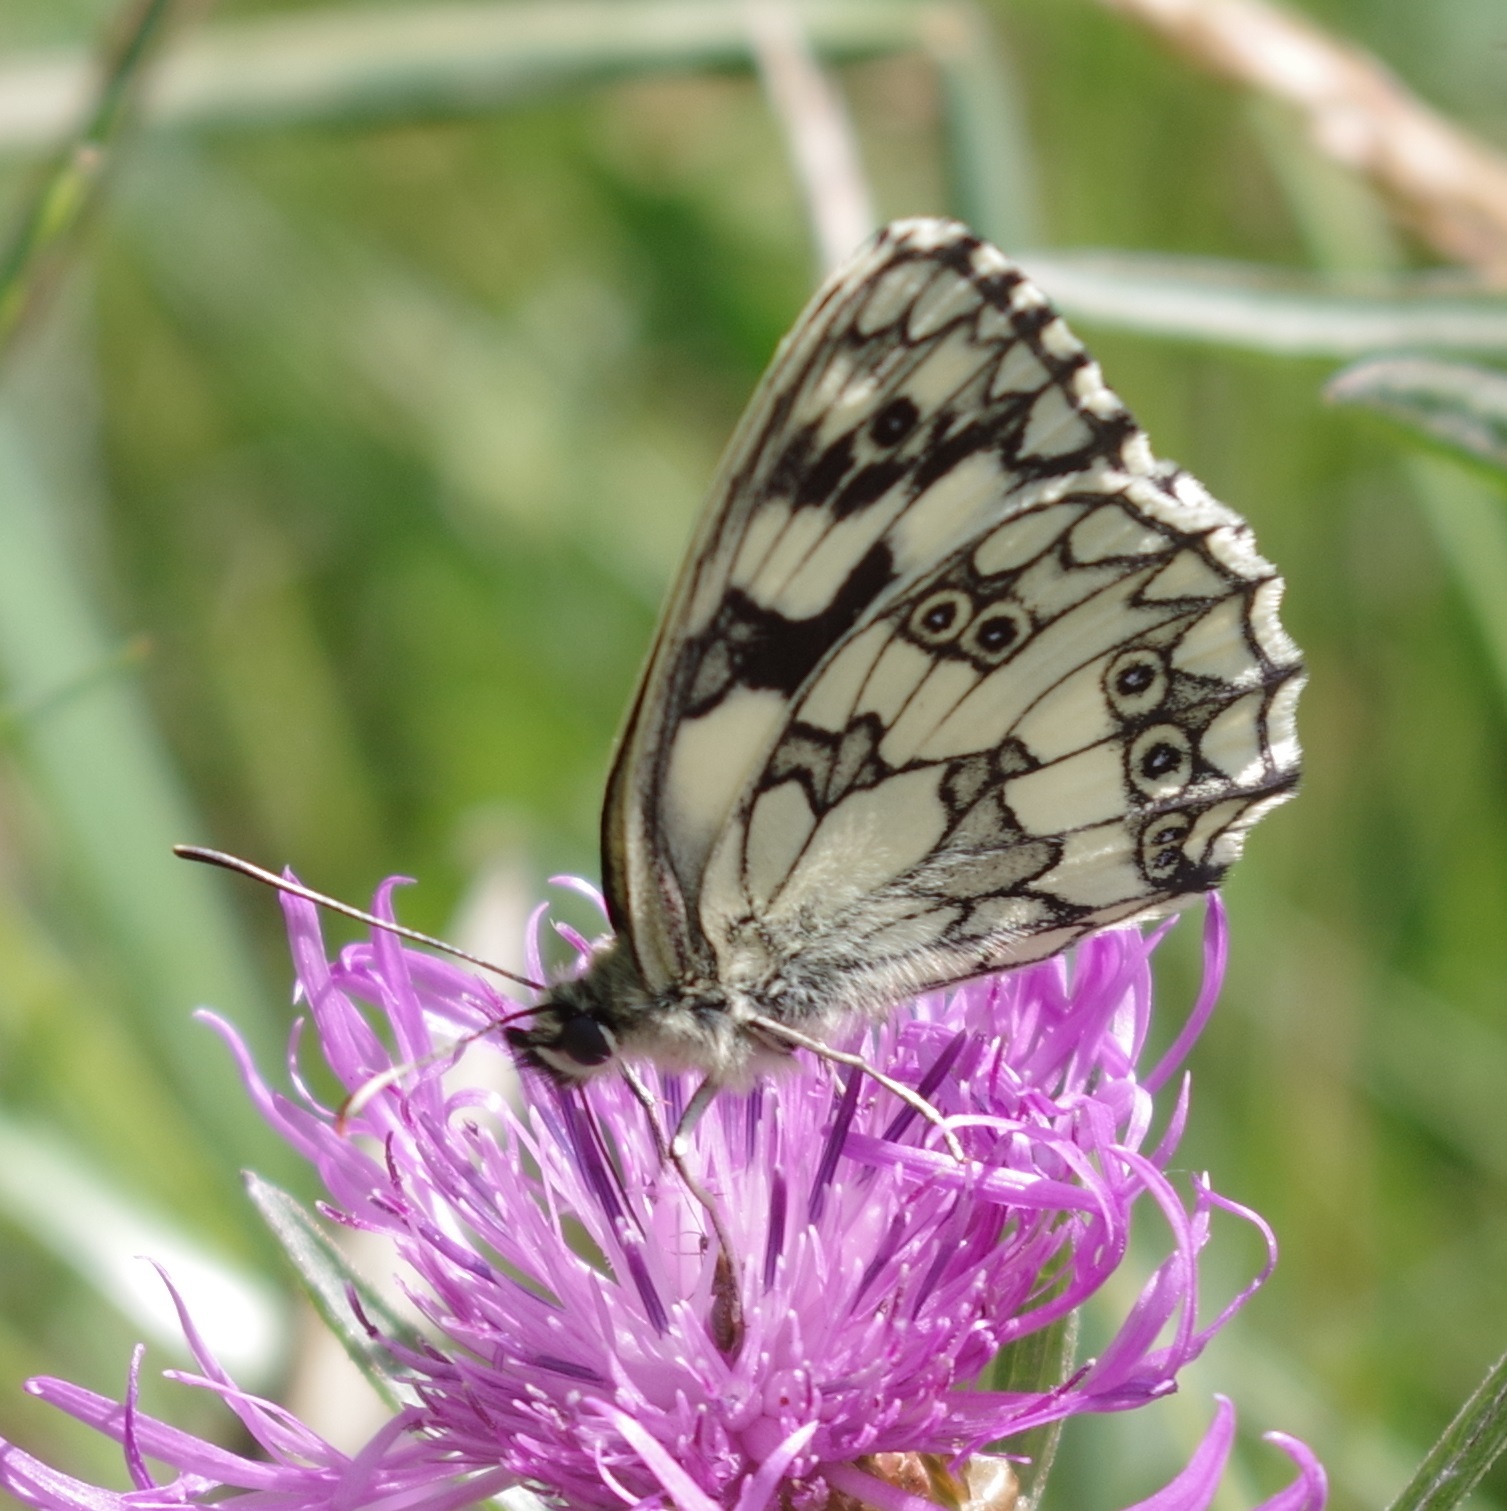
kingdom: Animalia
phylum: Arthropoda
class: Insecta
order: Lepidoptera
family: Nymphalidae
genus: Melanargia
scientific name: Melanargia galathea
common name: Marbled white
